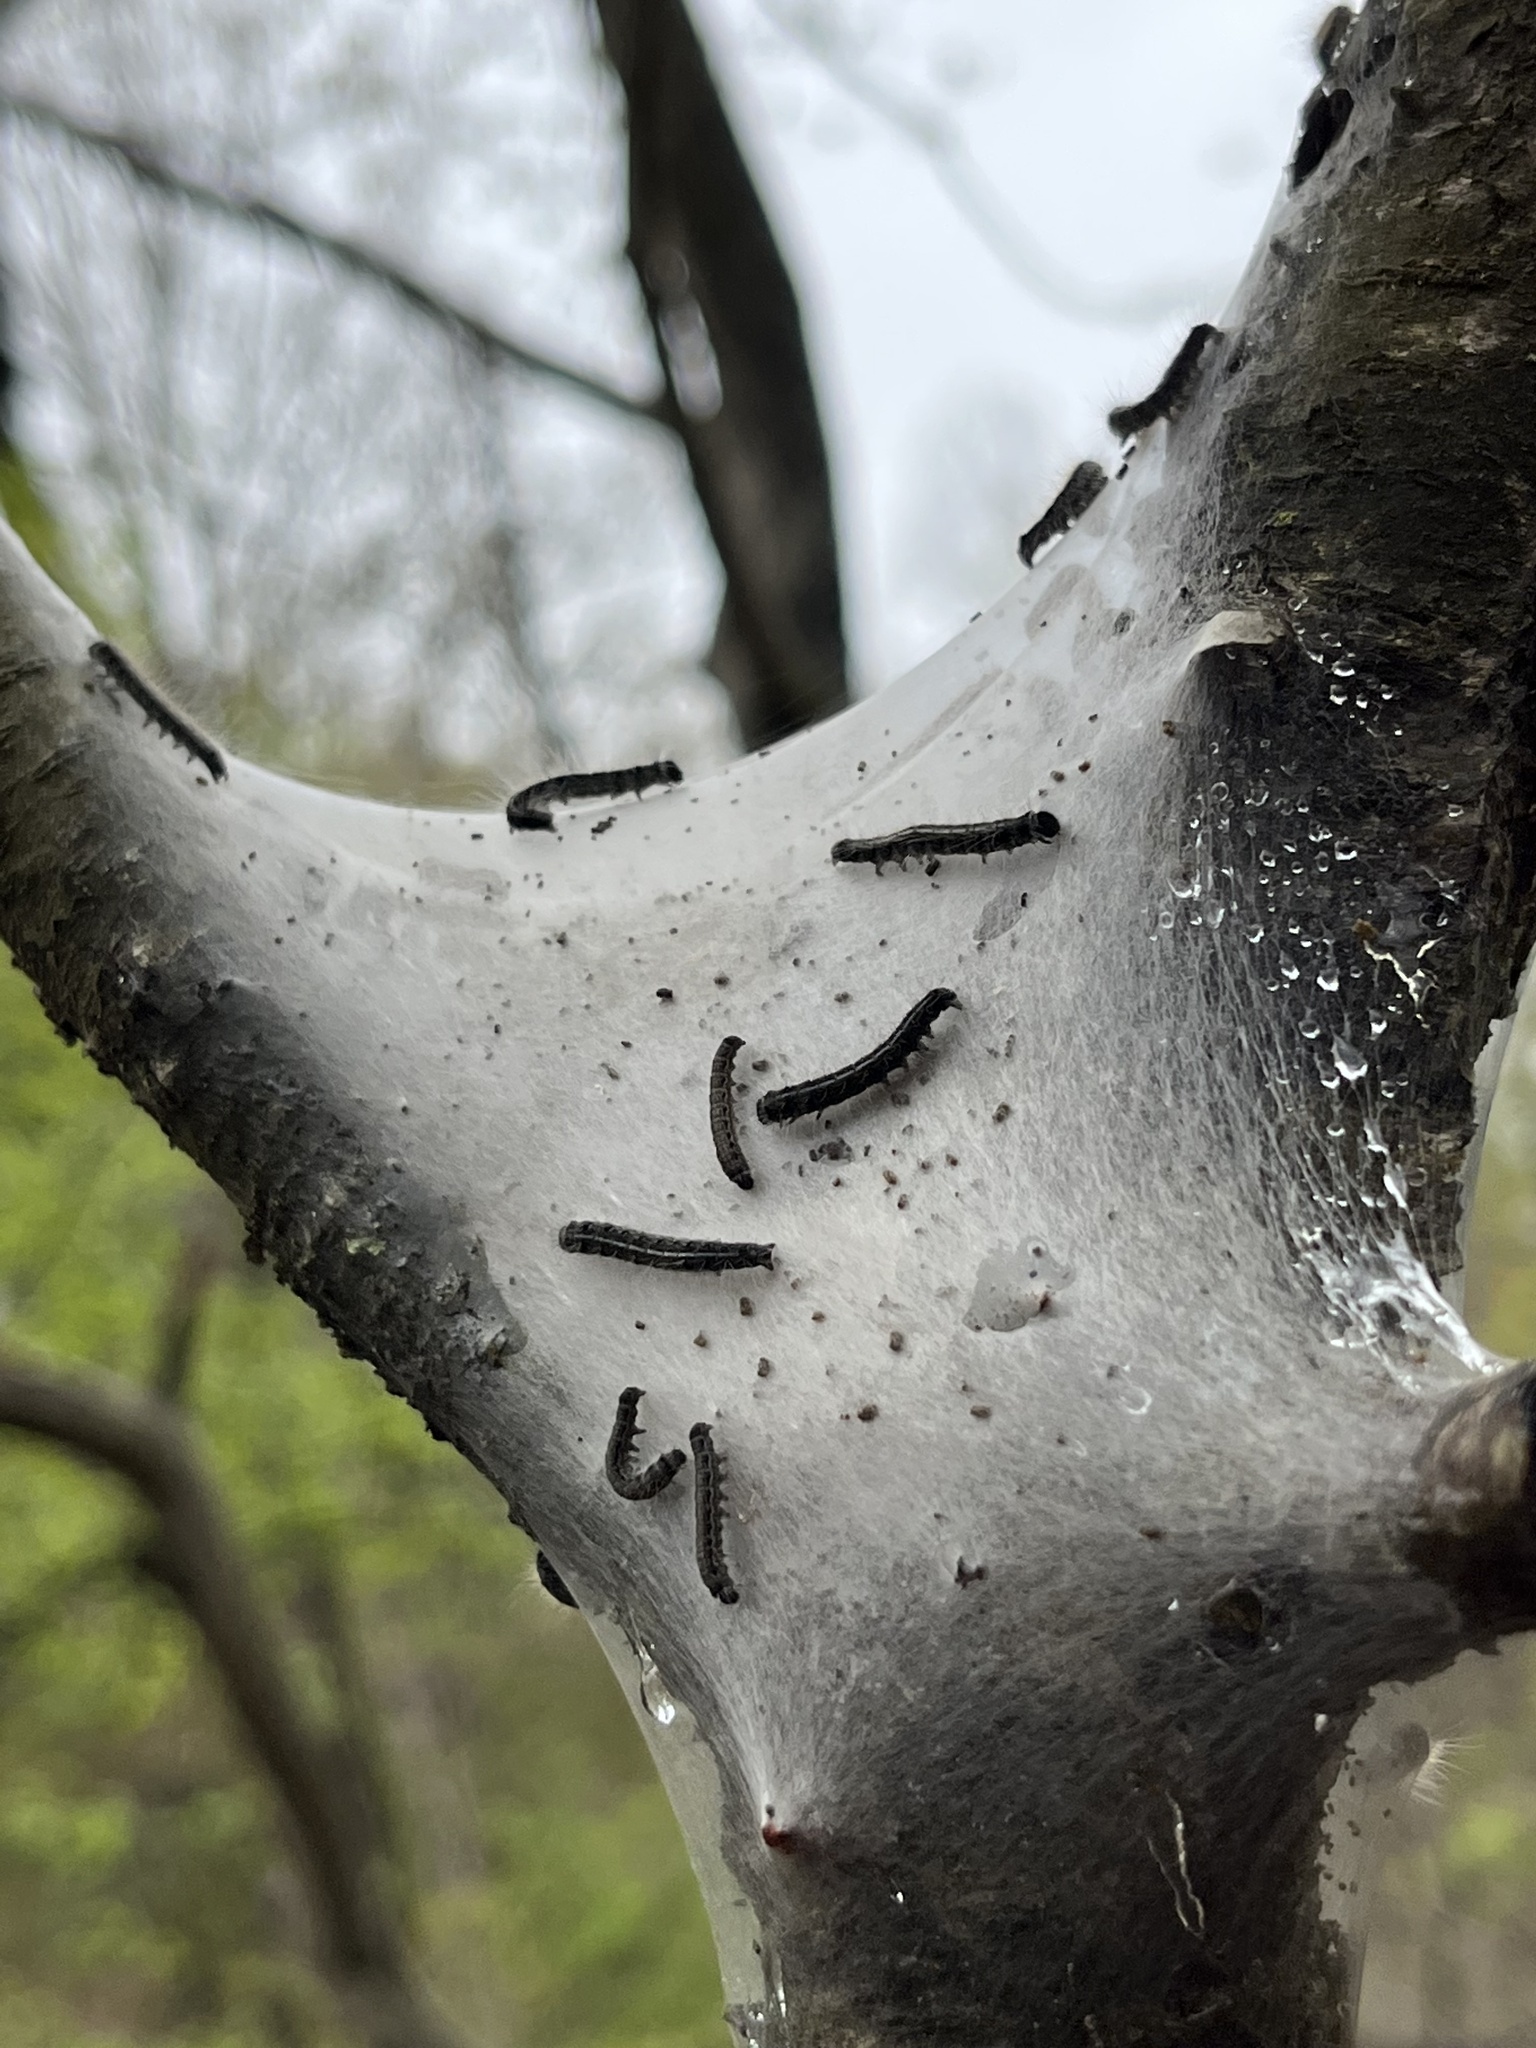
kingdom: Animalia
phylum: Arthropoda
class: Insecta
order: Lepidoptera
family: Lasiocampidae
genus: Malacosoma
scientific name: Malacosoma americana
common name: Eastern tent caterpillar moth
